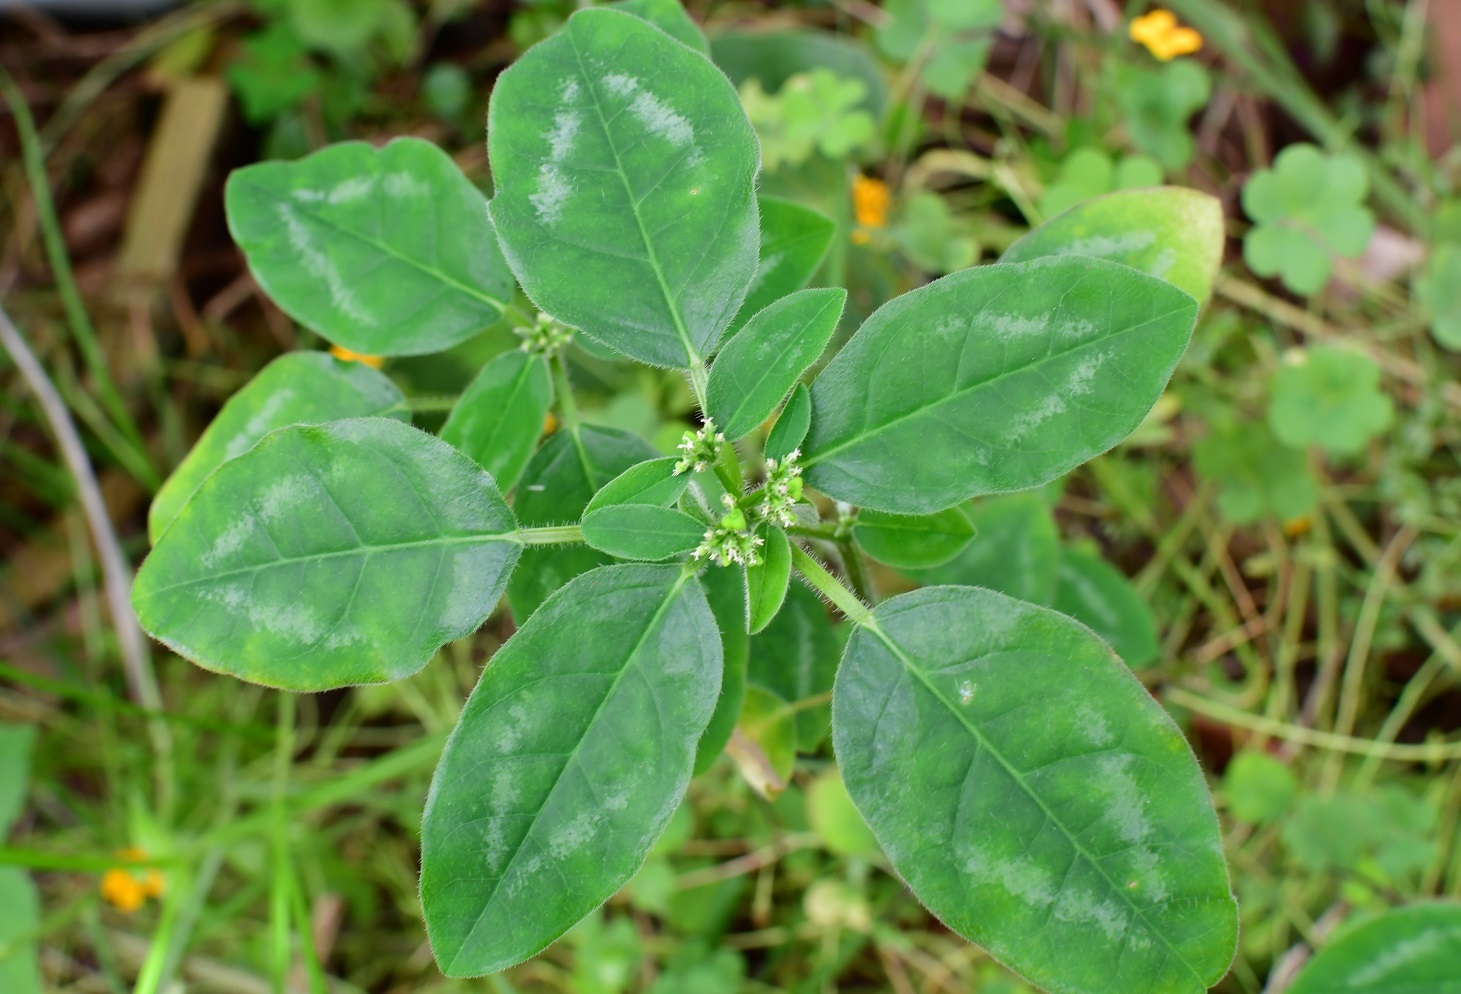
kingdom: Plantae
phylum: Tracheophyta
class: Magnoliopsida
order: Malpighiales
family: Euphorbiaceae
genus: Euphorbia
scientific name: Euphorbia graminea
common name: Grassleaf spurge
